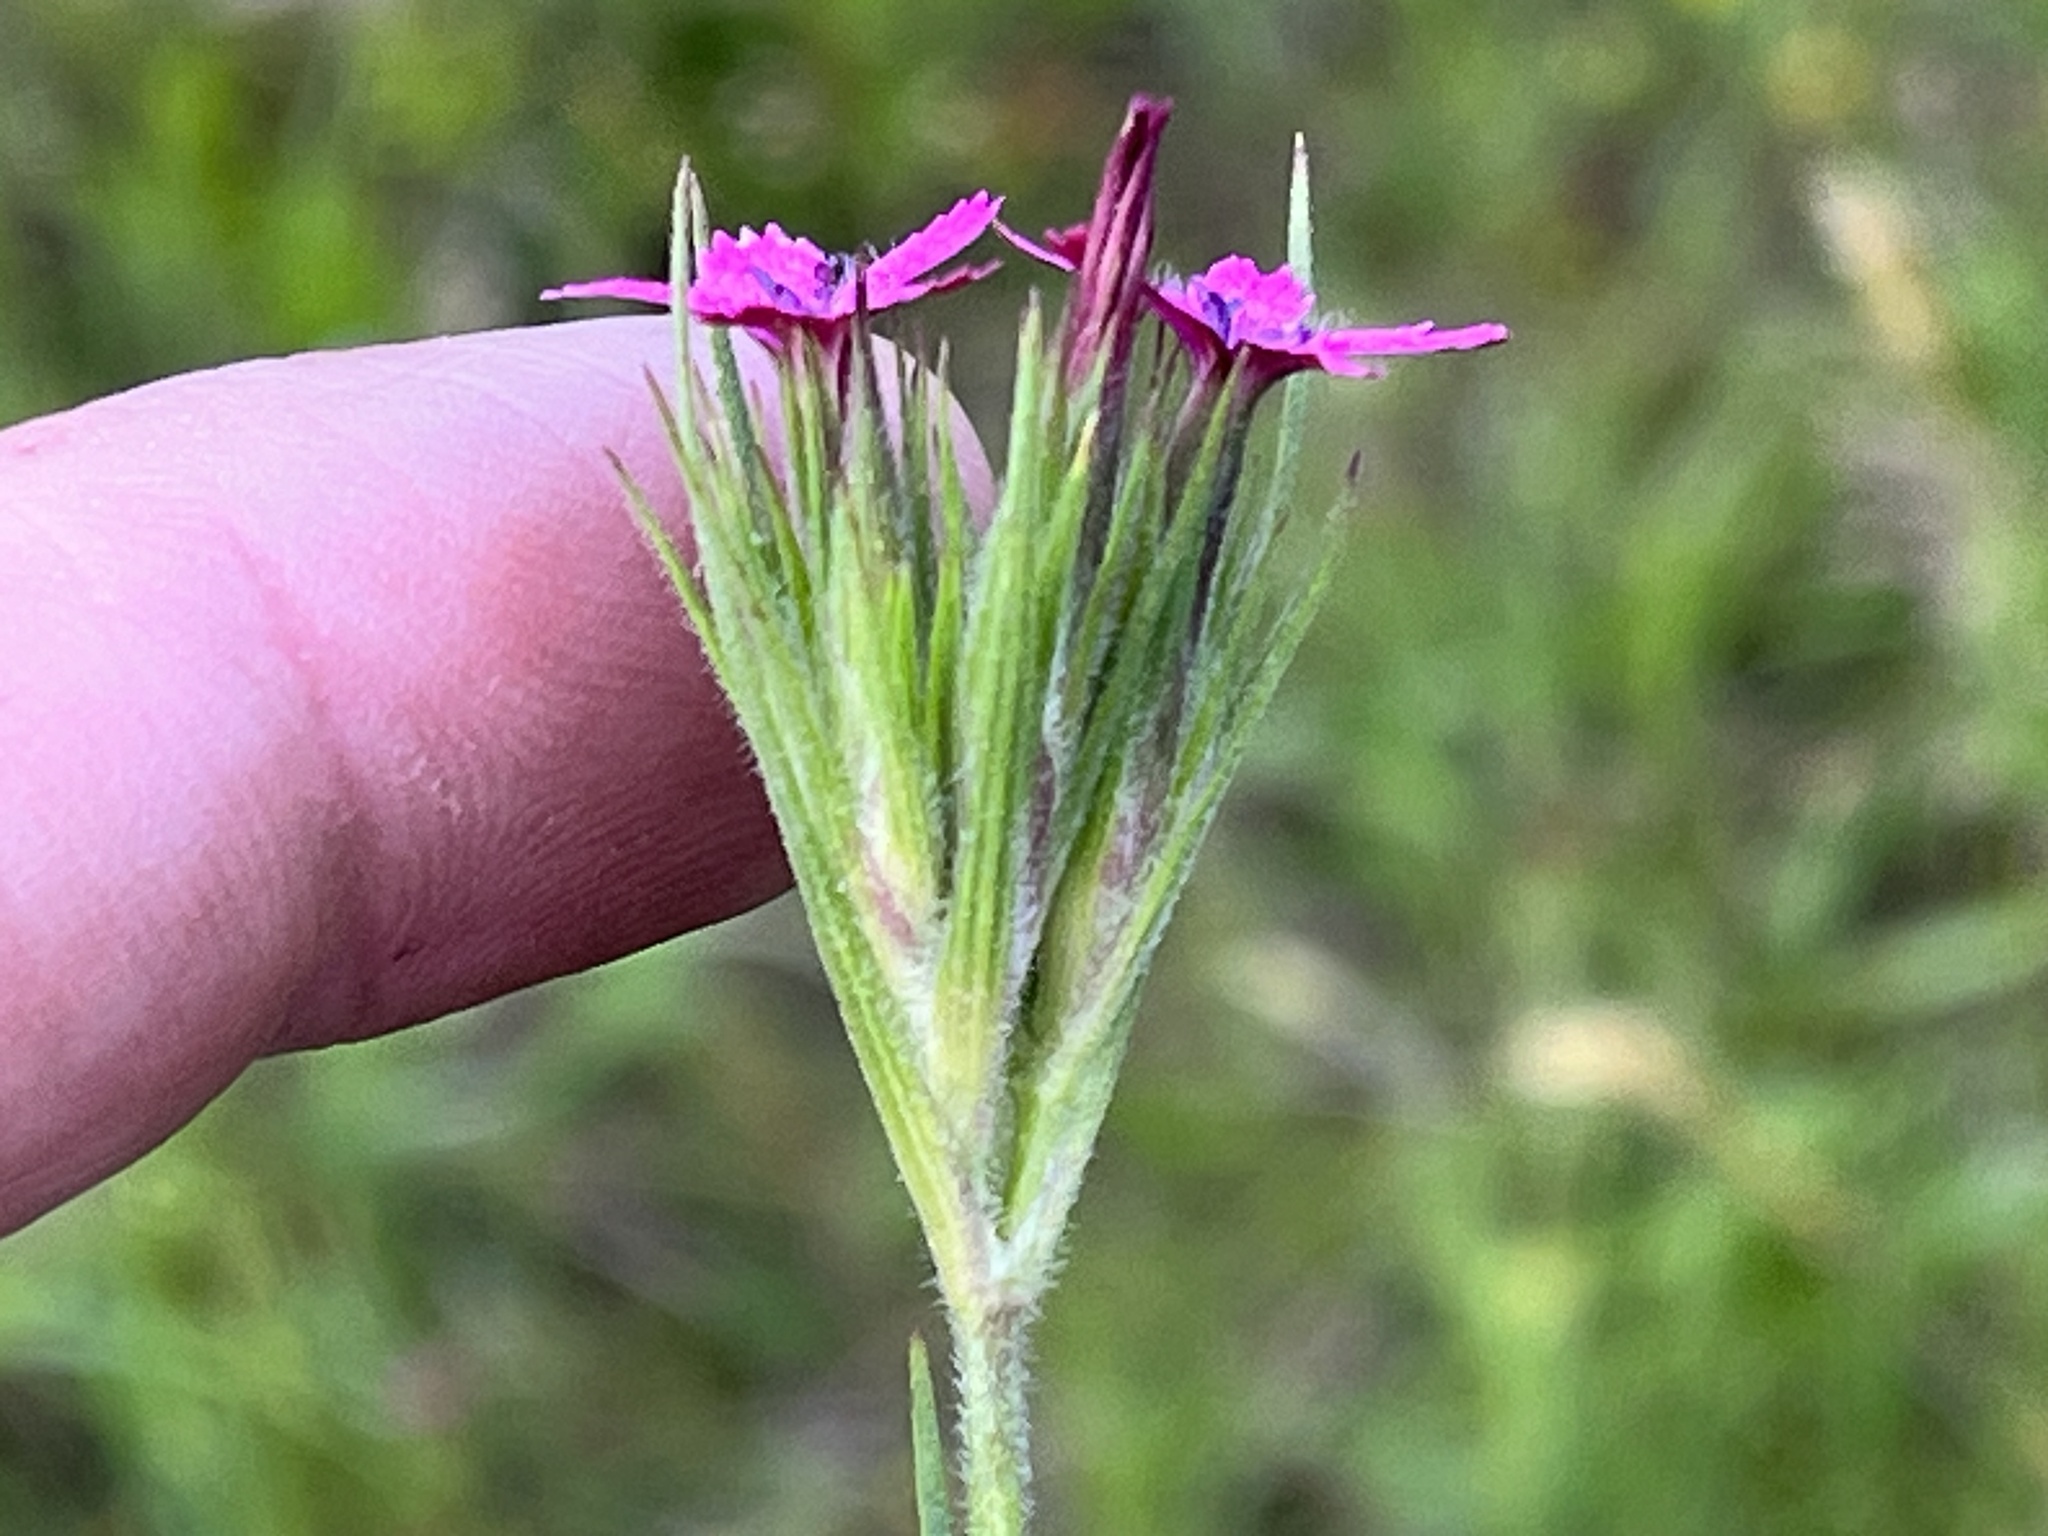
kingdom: Plantae
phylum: Tracheophyta
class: Magnoliopsida
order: Caryophyllales
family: Caryophyllaceae
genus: Dianthus
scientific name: Dianthus armeria
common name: Deptford pink
